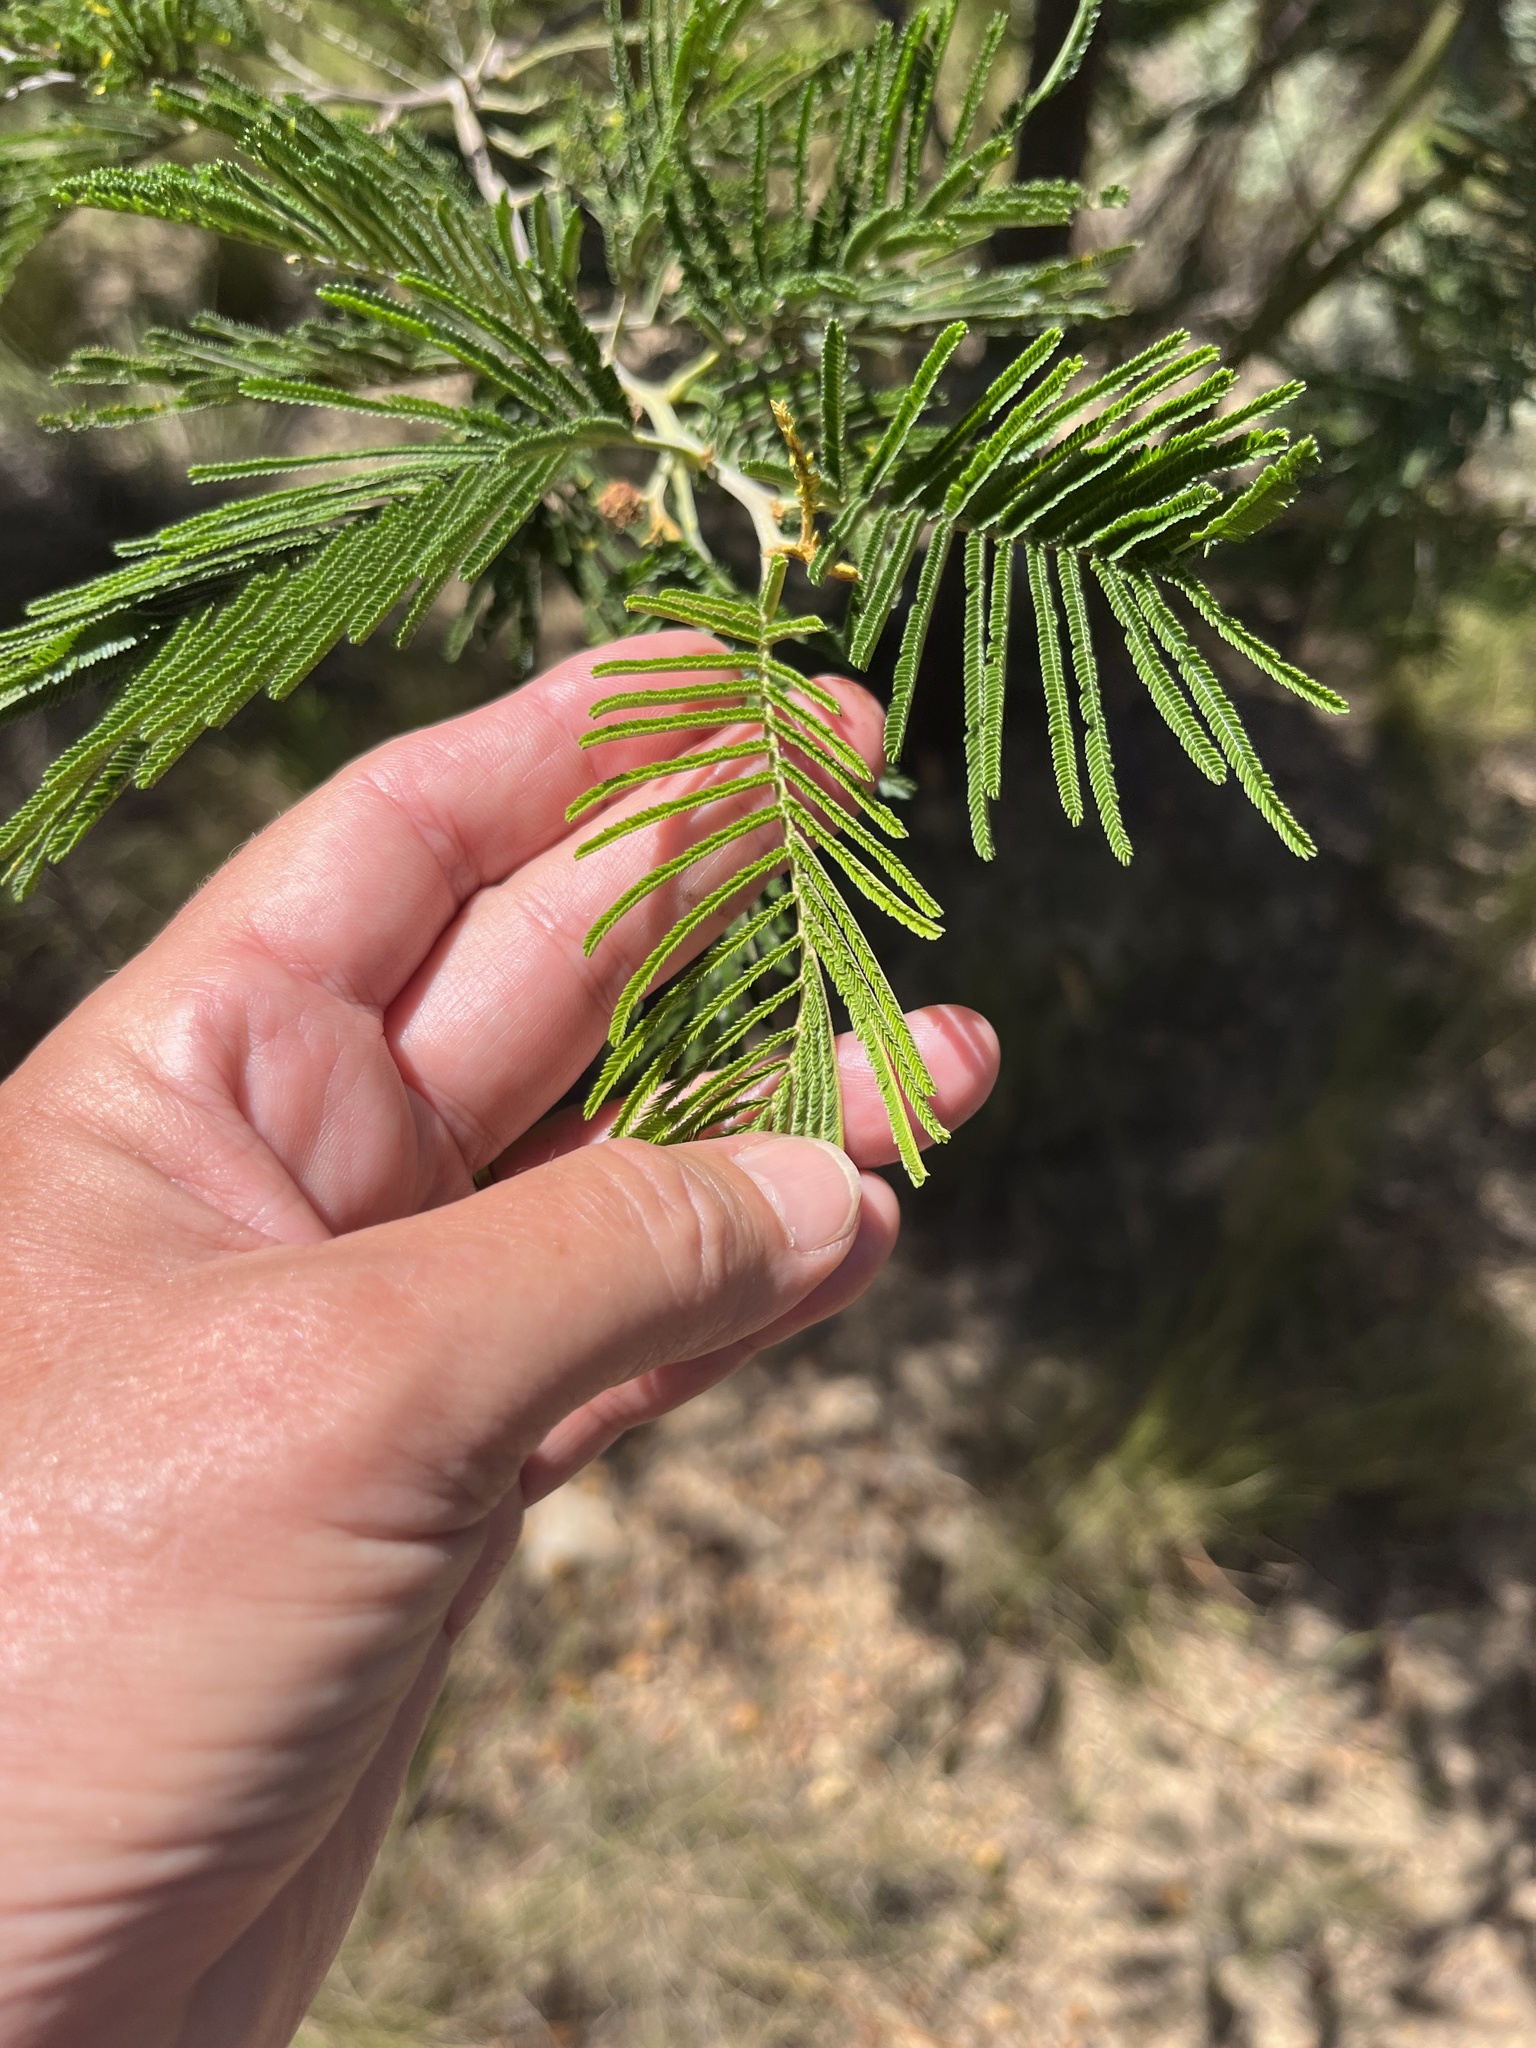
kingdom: Plantae
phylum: Tracheophyta
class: Magnoliopsida
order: Fabales
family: Fabaceae
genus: Acacia
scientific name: Acacia mearnsii
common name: Black wattle
